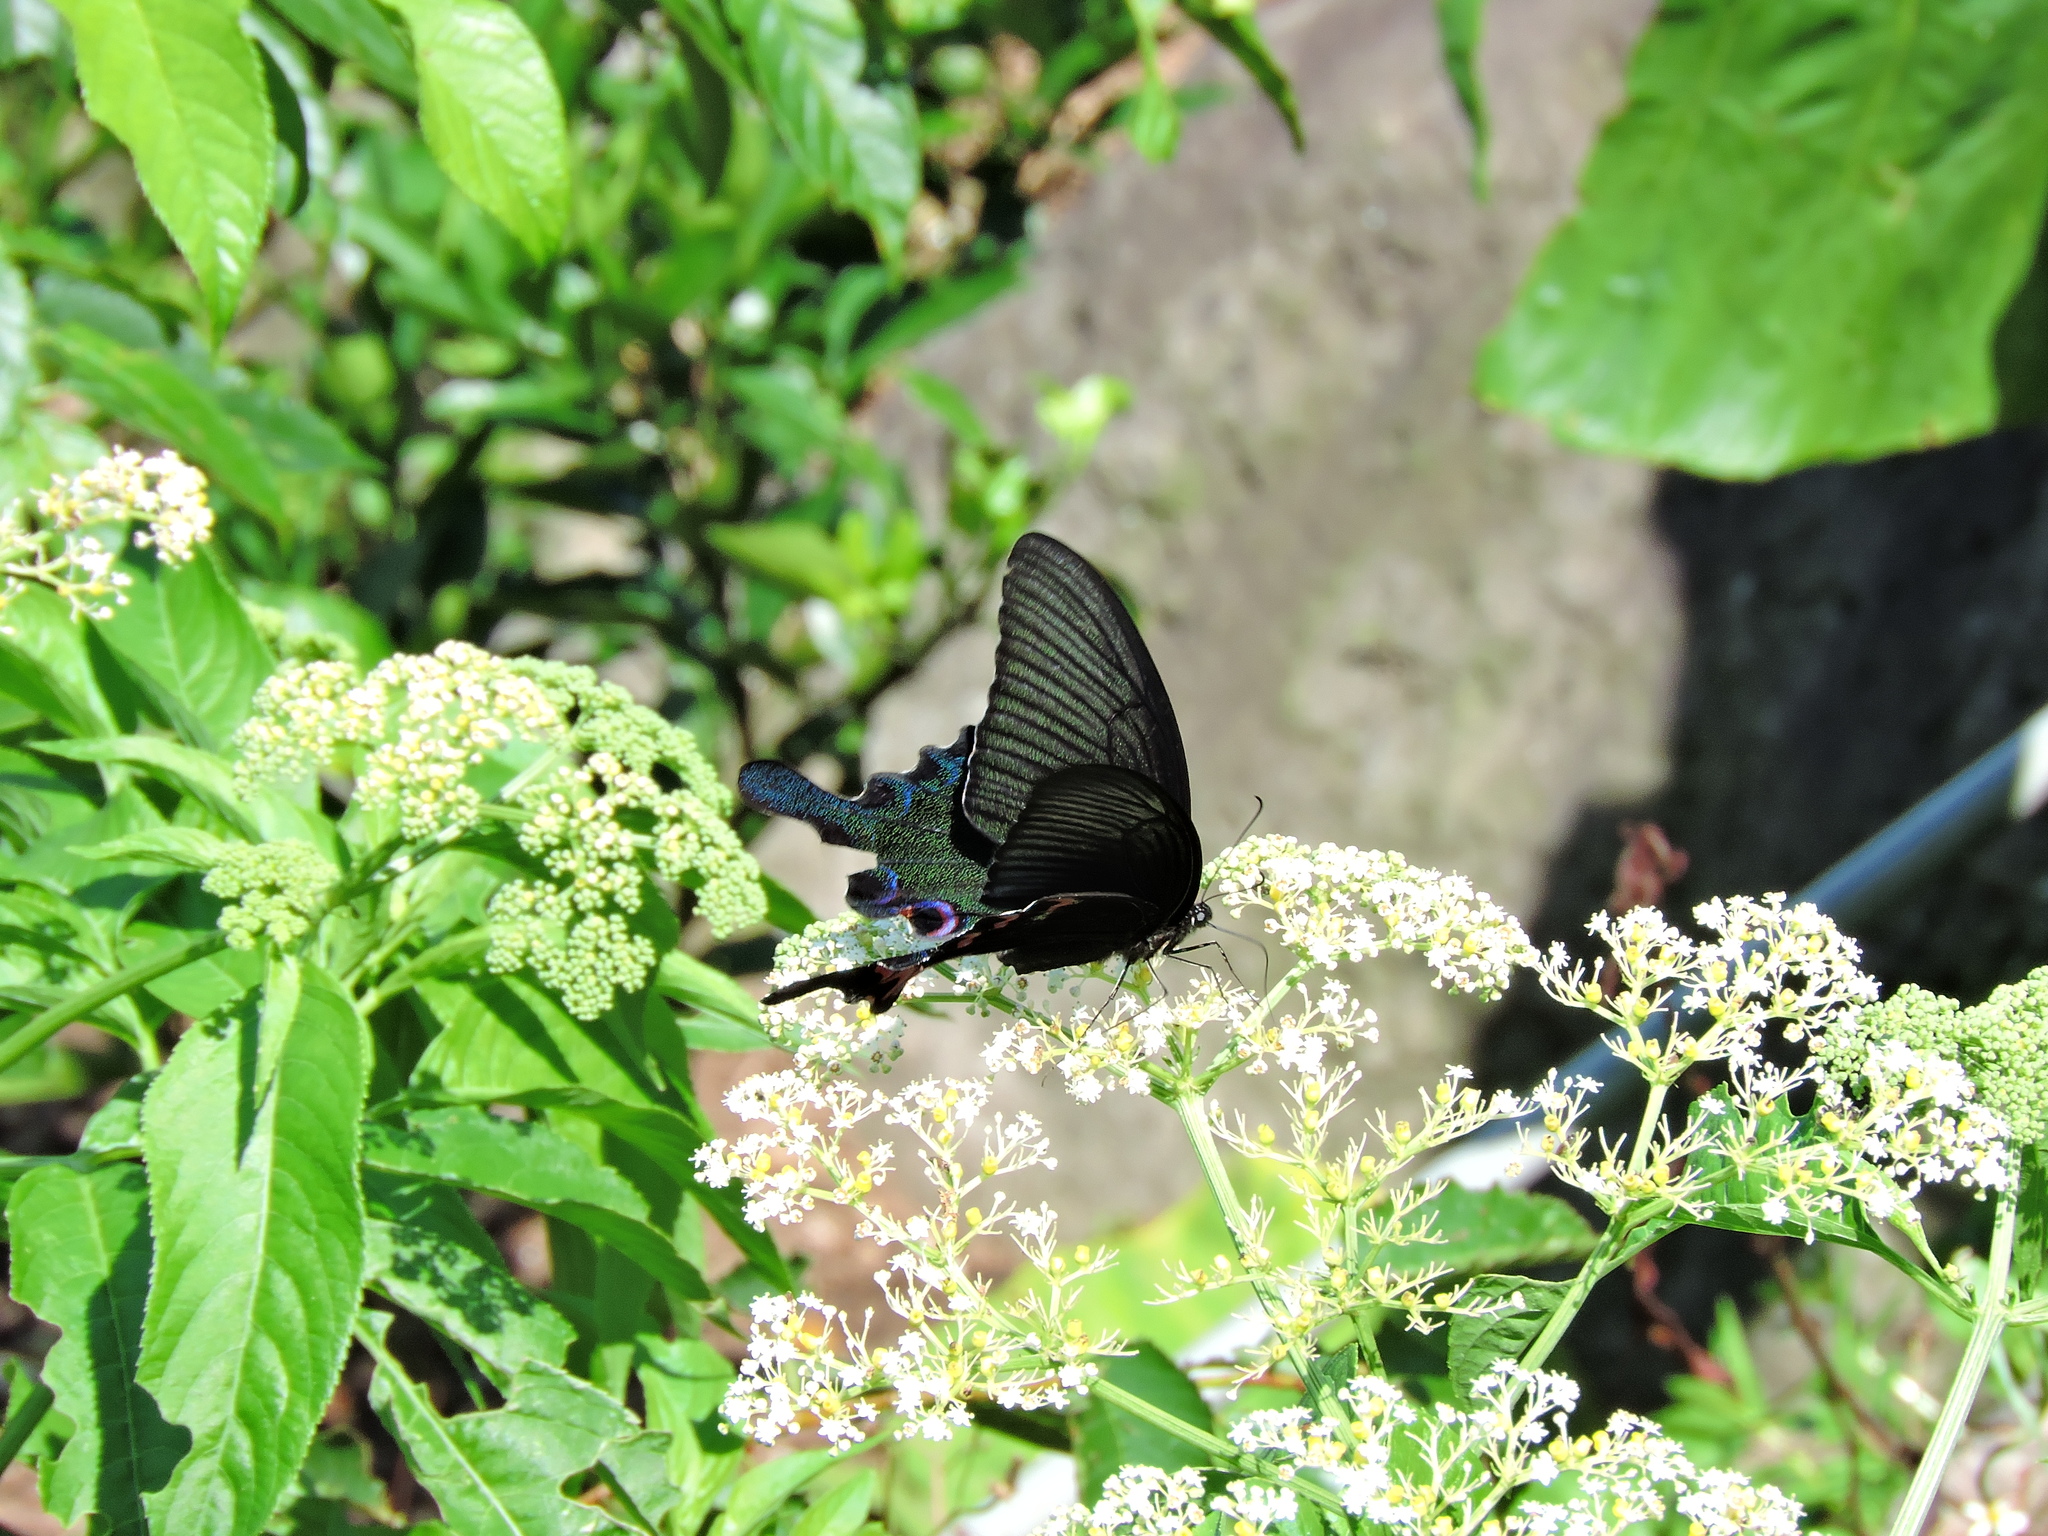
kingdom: Animalia
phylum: Arthropoda
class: Insecta
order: Lepidoptera
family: Papilionidae
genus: Papilio
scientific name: Papilio bianor
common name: Common peacock
